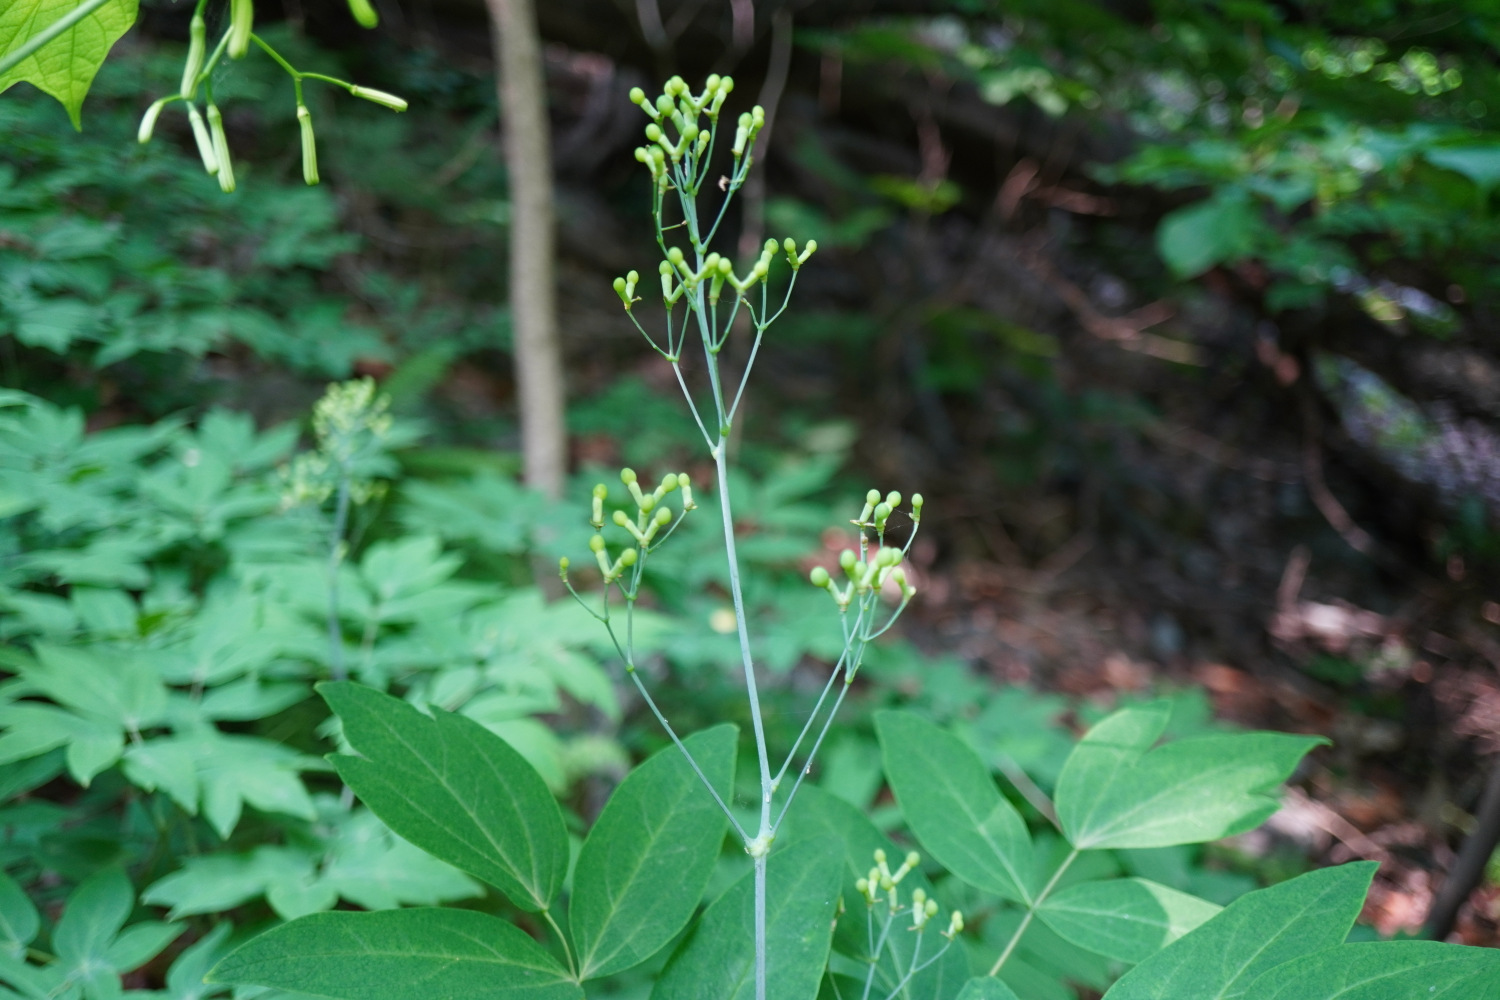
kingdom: Plantae
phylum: Tracheophyta
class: Magnoliopsida
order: Ranunculales
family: Berberidaceae
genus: Caulophyllum
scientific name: Caulophyllum robustum
